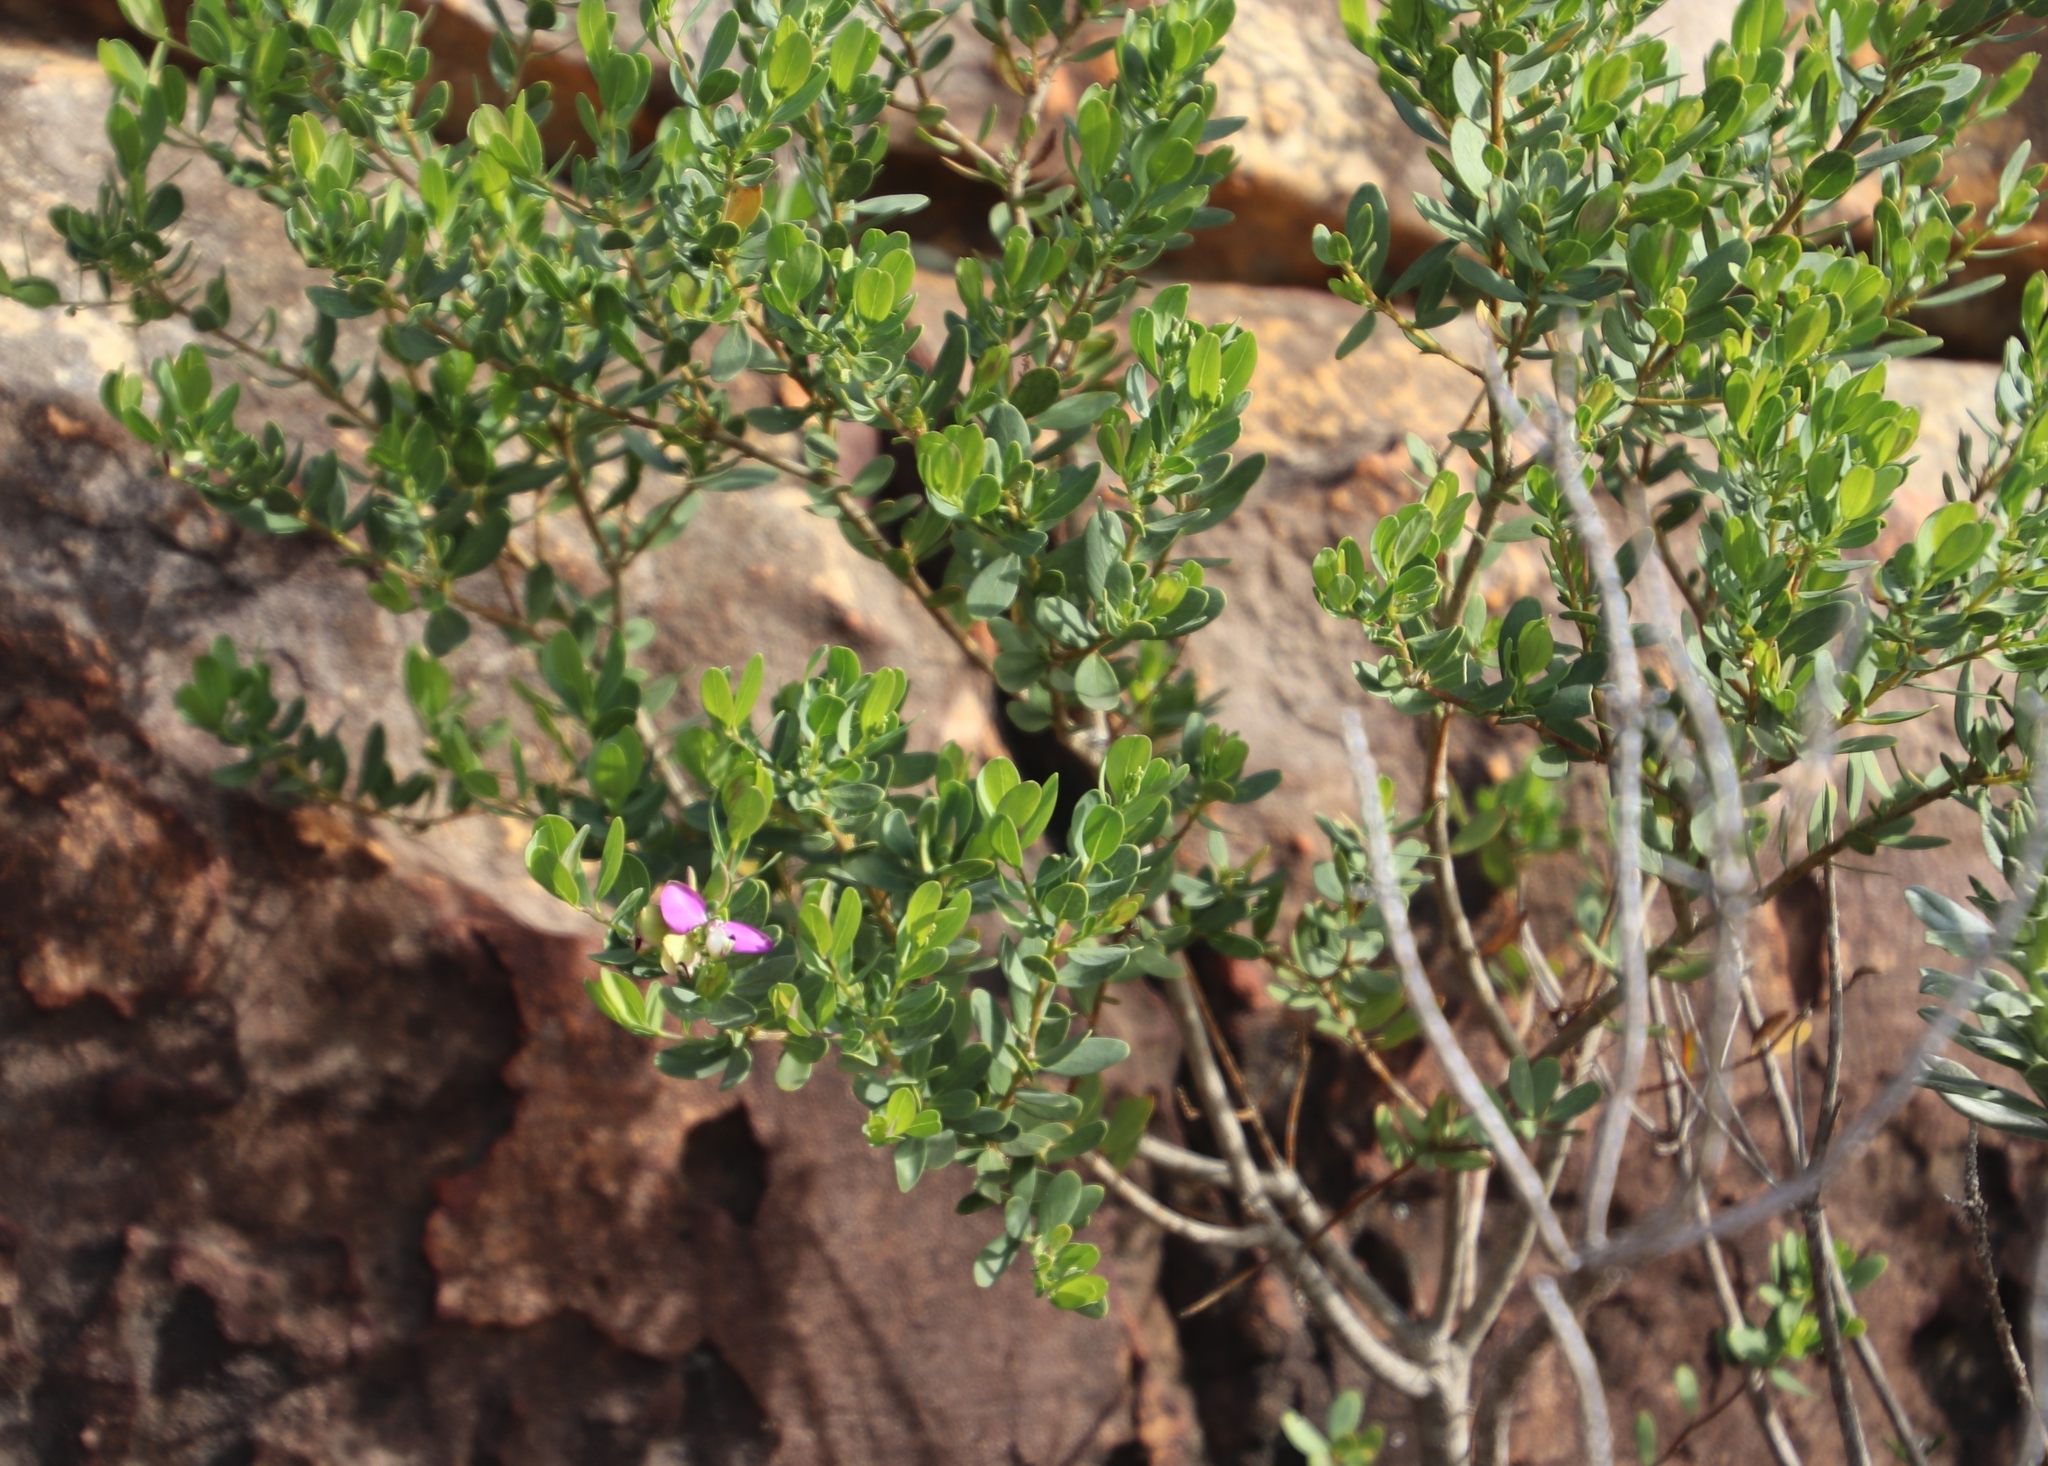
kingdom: Plantae
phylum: Tracheophyta
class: Magnoliopsida
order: Fabales
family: Polygalaceae
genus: Polygala
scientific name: Polygala myrtifolia
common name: Myrtle-leaf milkwort
